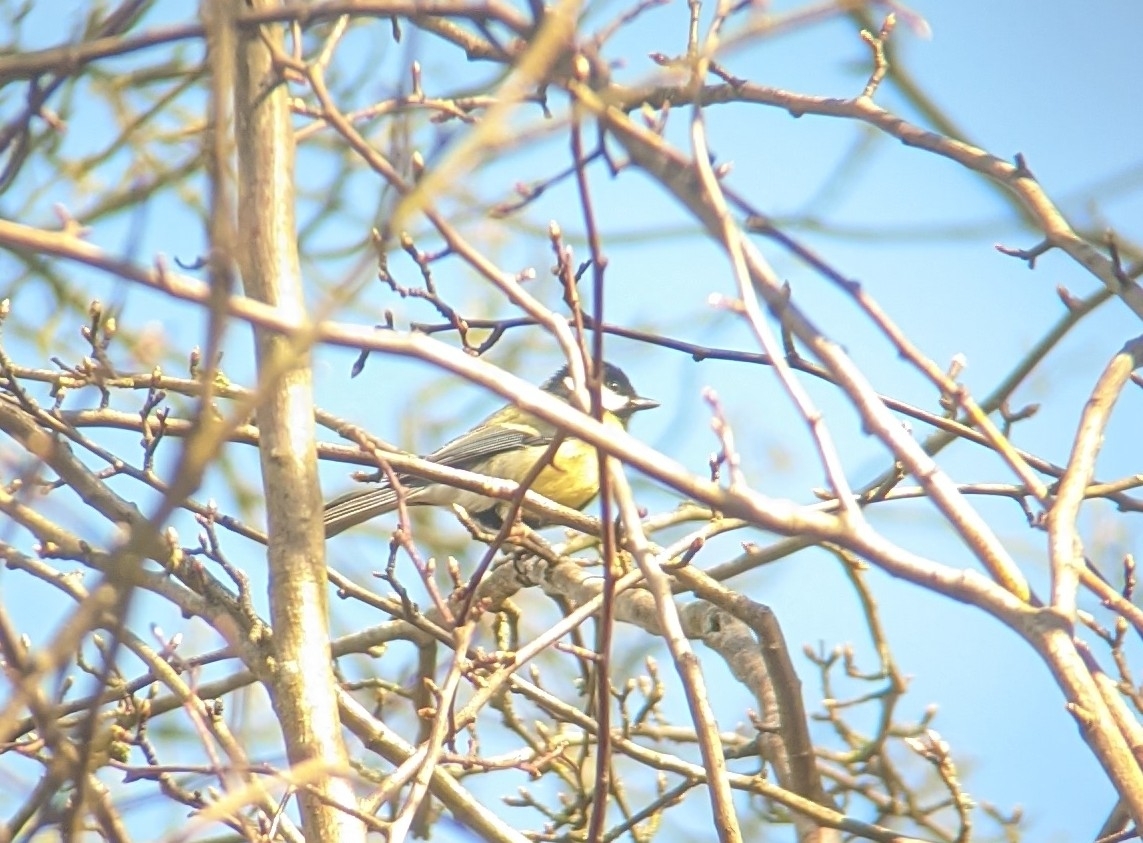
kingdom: Animalia
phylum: Chordata
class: Aves
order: Passeriformes
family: Paridae
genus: Parus
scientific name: Parus major
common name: Great tit
